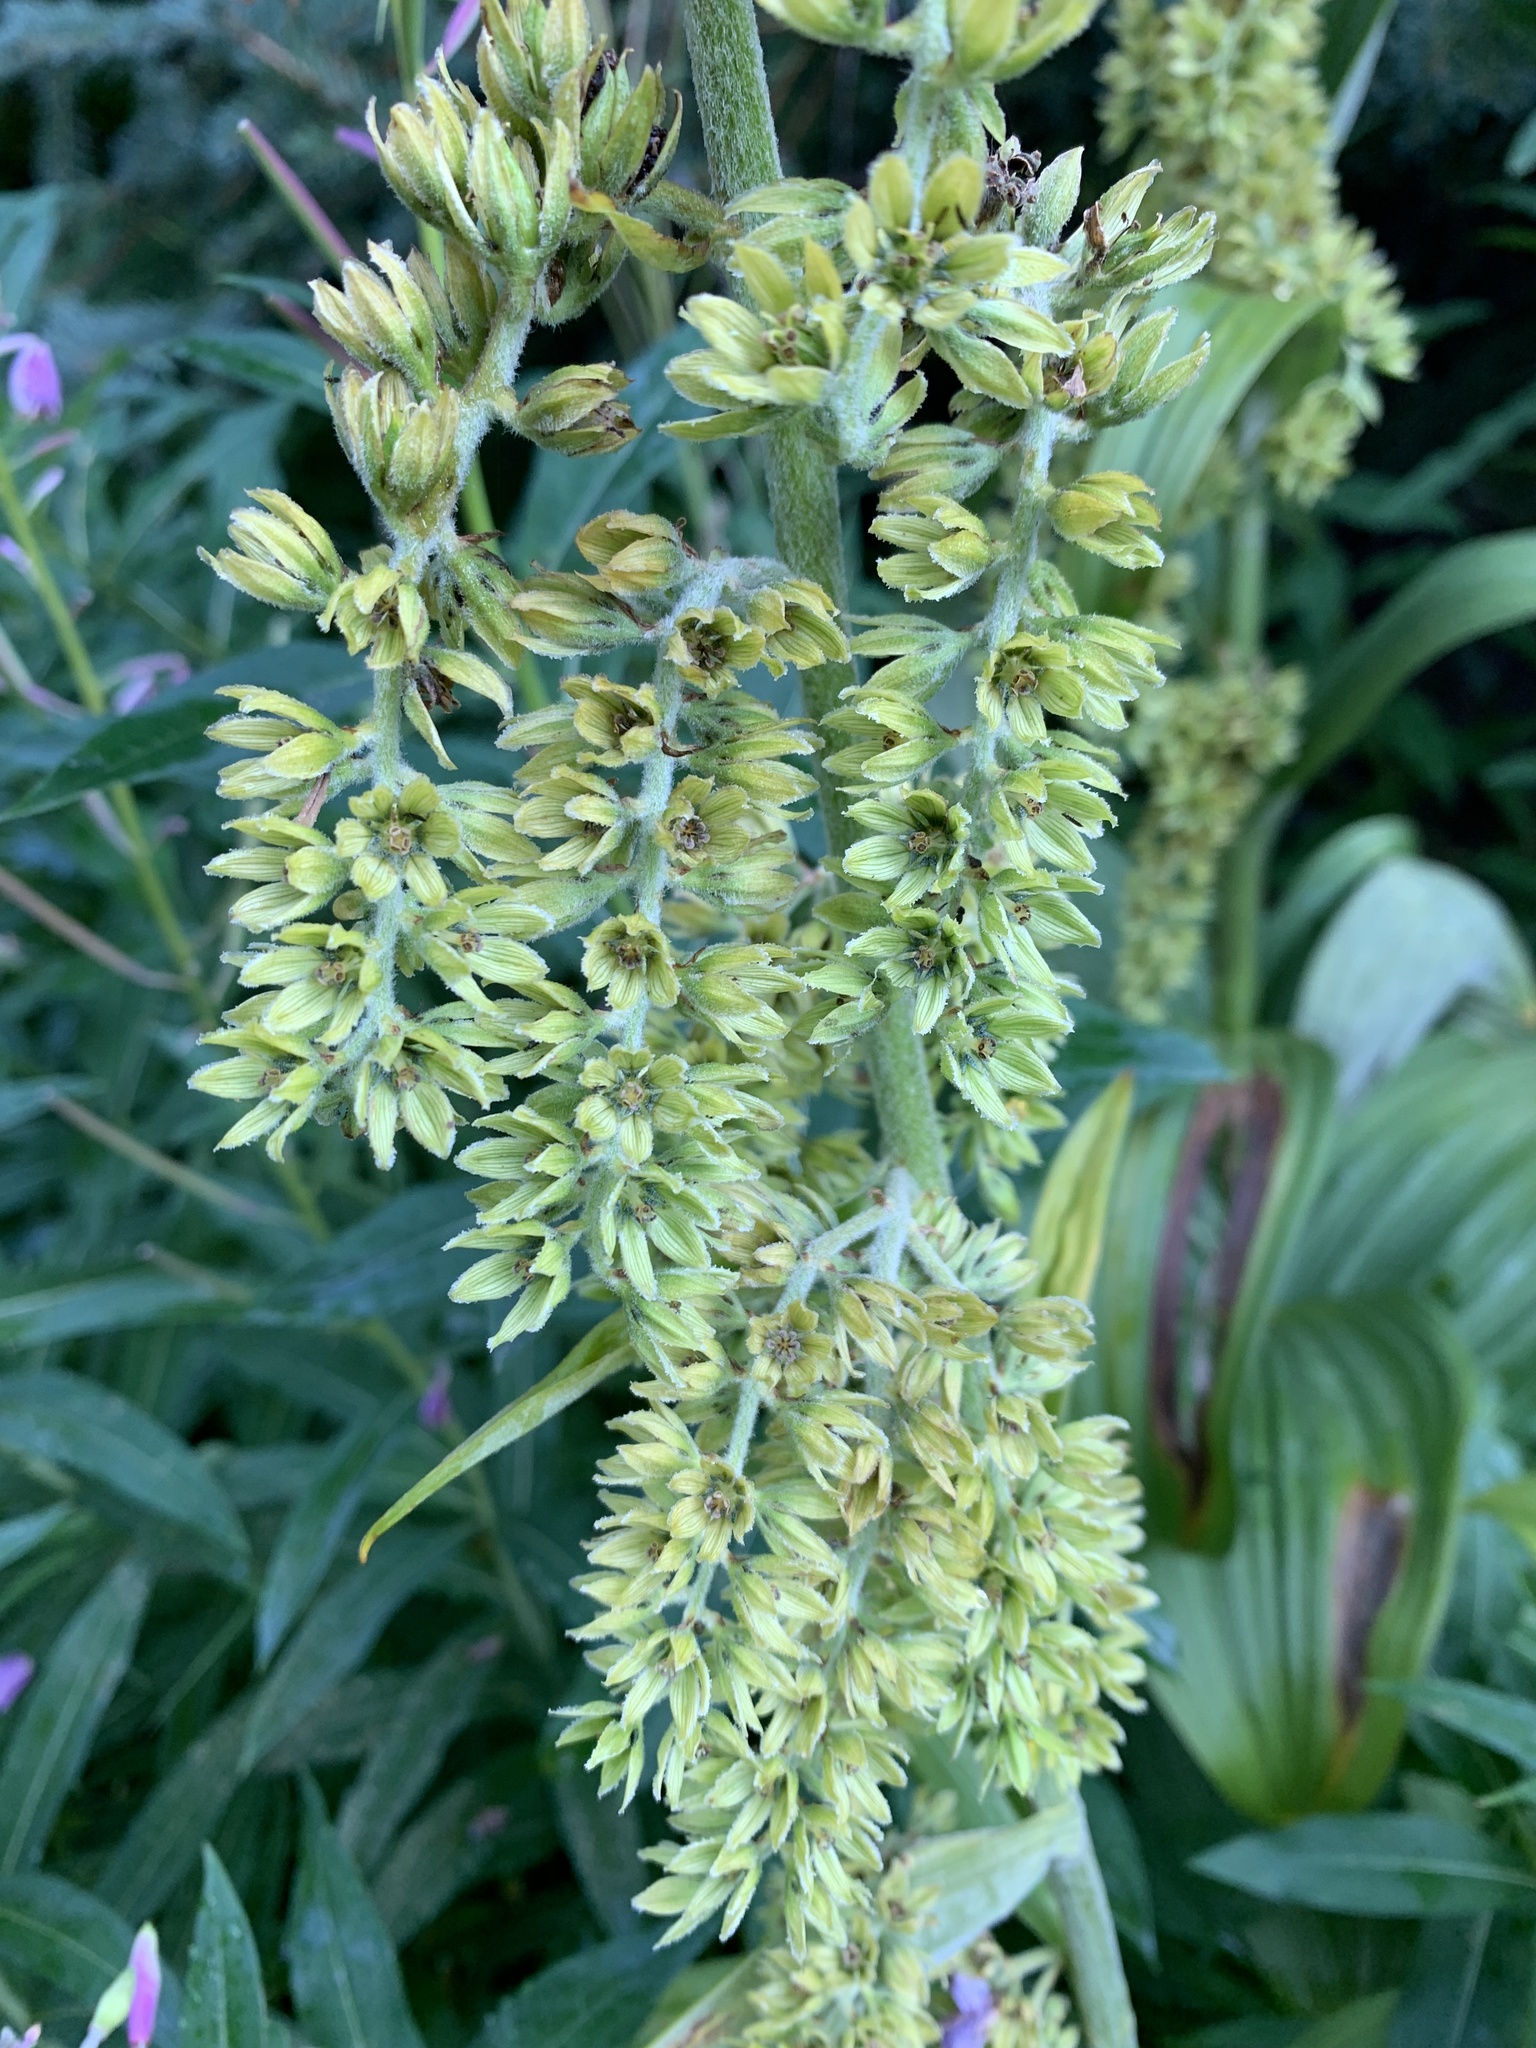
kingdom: Plantae
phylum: Tracheophyta
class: Liliopsida
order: Liliales
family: Melanthiaceae
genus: Veratrum
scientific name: Veratrum viride
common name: American false hellebore
